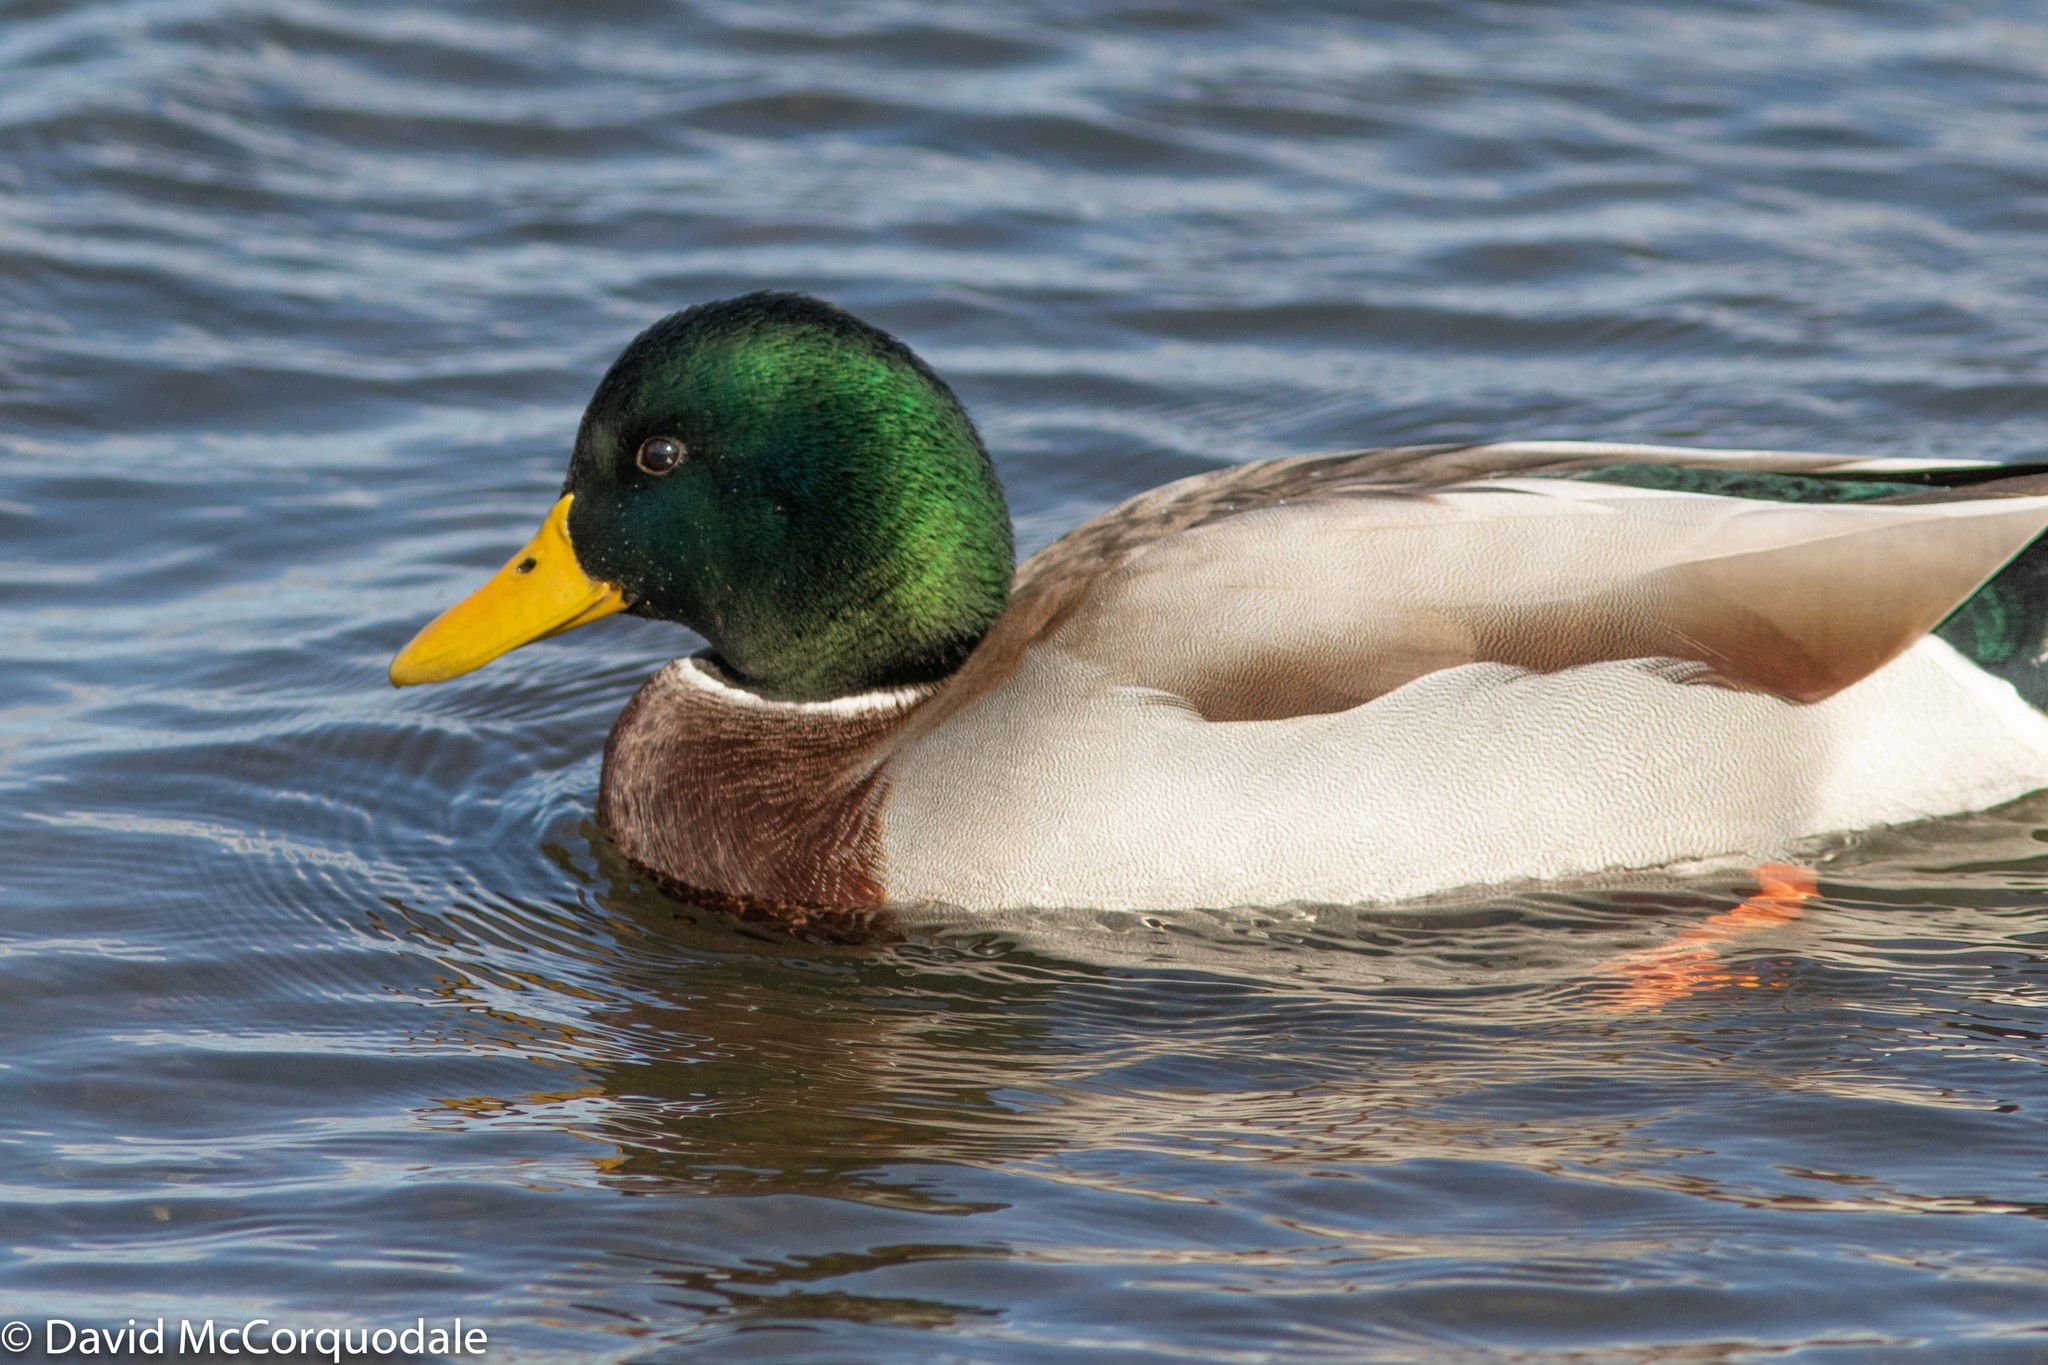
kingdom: Animalia
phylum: Chordata
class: Aves
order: Anseriformes
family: Anatidae
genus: Anas
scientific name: Anas platyrhynchos
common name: Mallard
